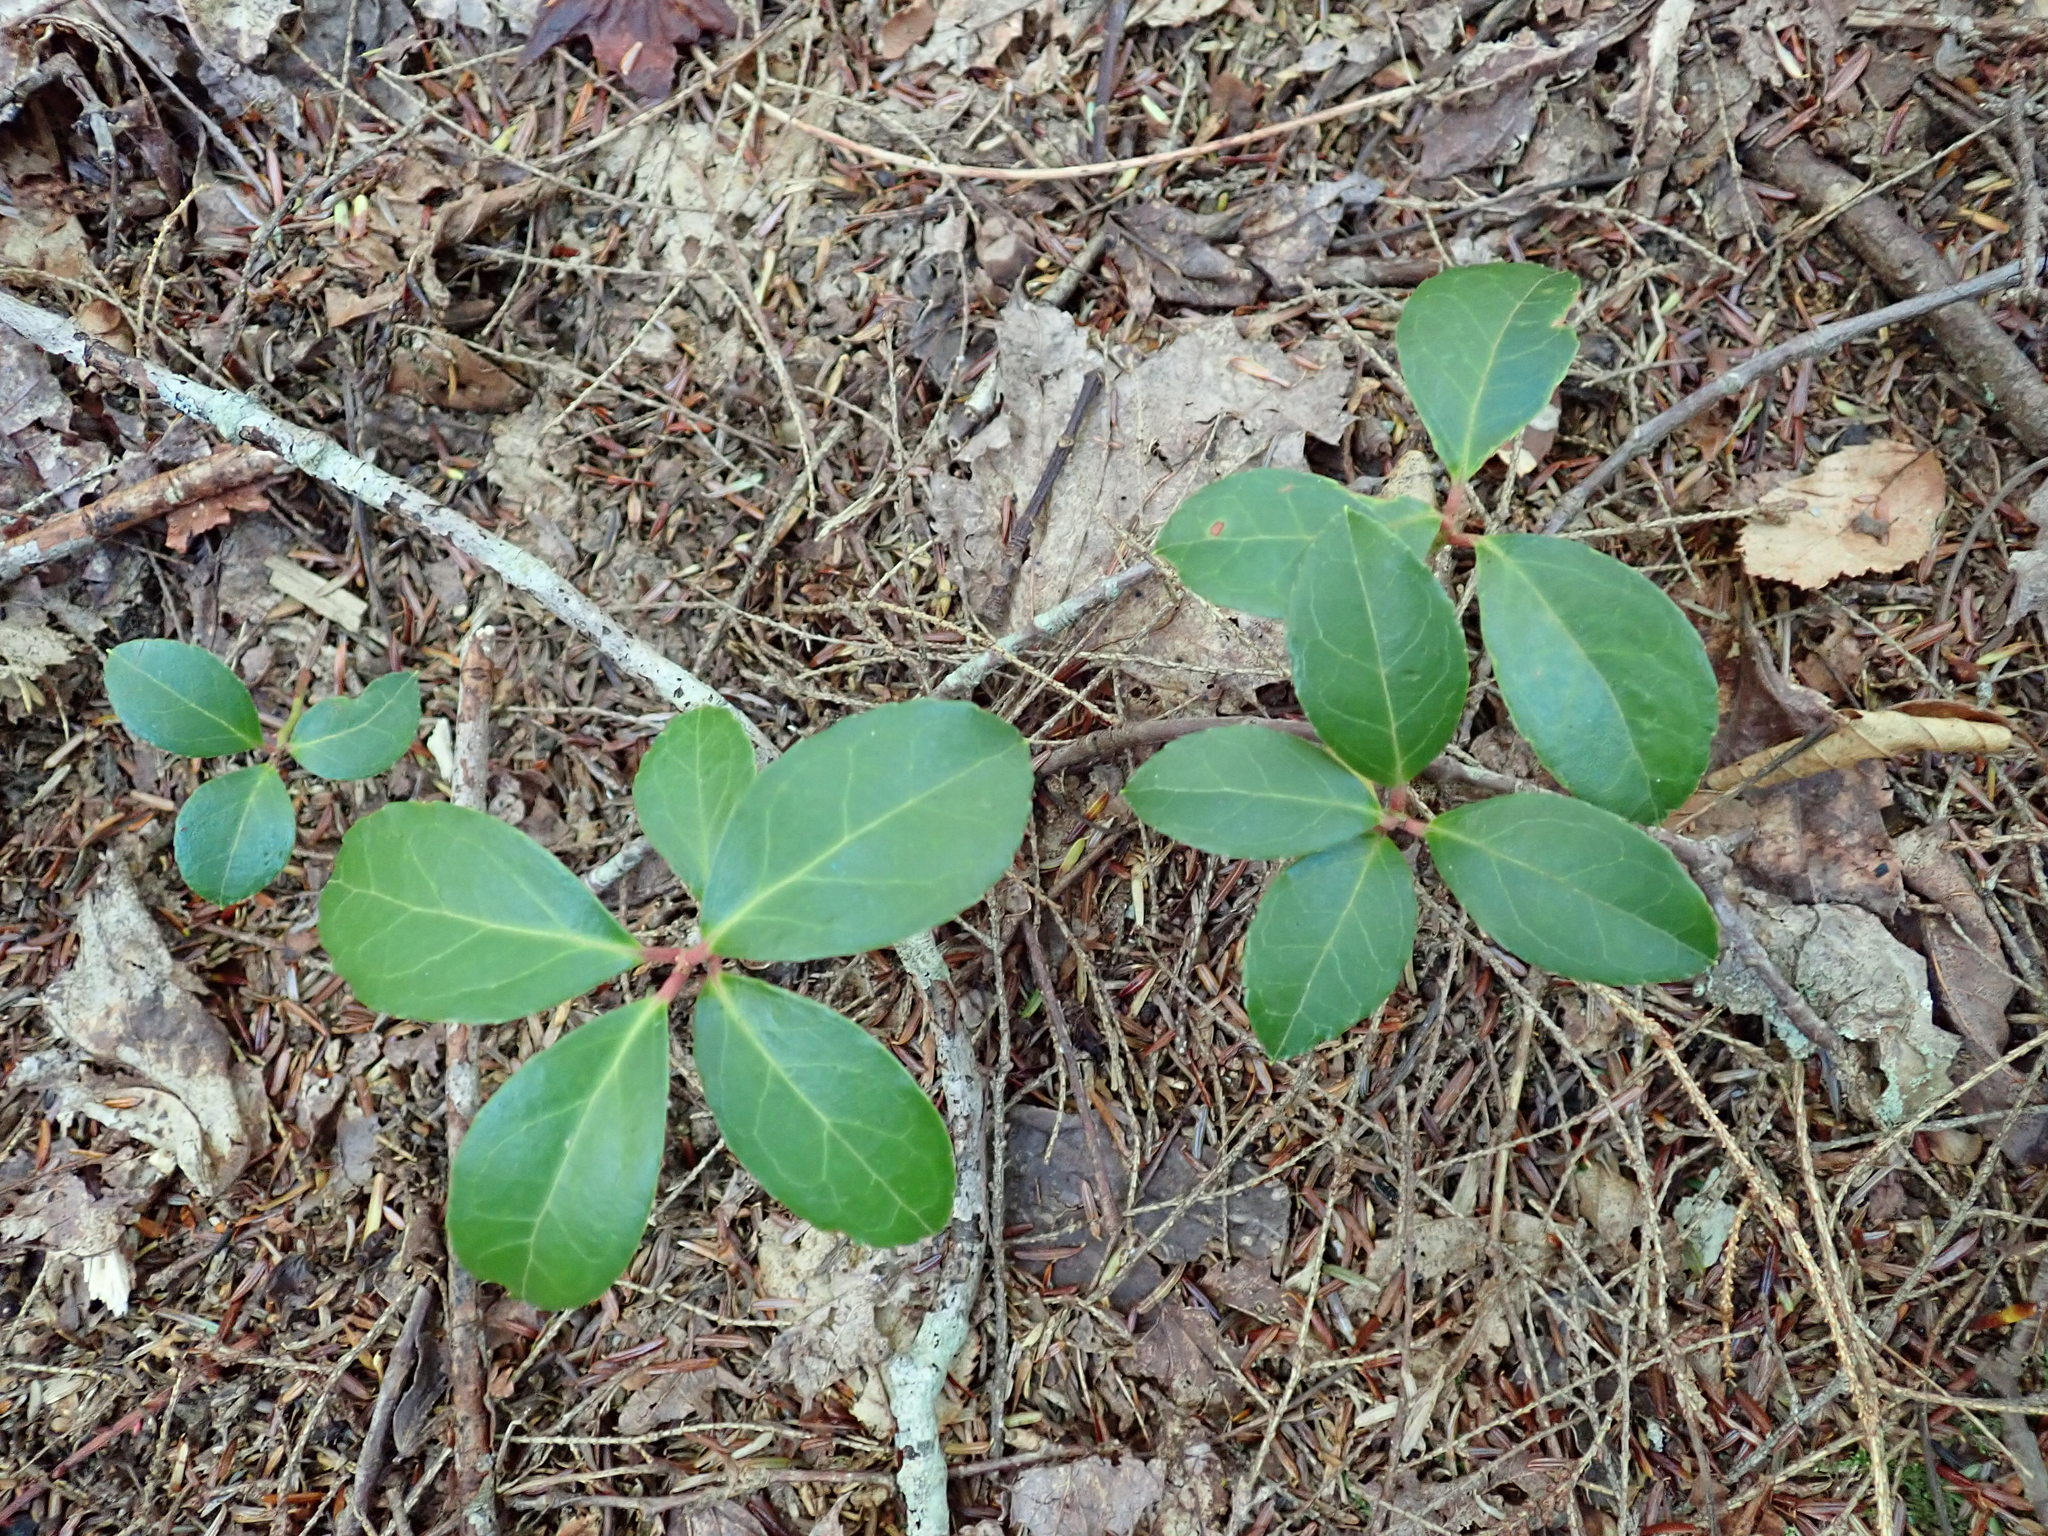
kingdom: Plantae
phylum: Tracheophyta
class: Magnoliopsida
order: Ericales
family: Ericaceae
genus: Gaultheria
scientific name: Gaultheria procumbens
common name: Checkerberry
